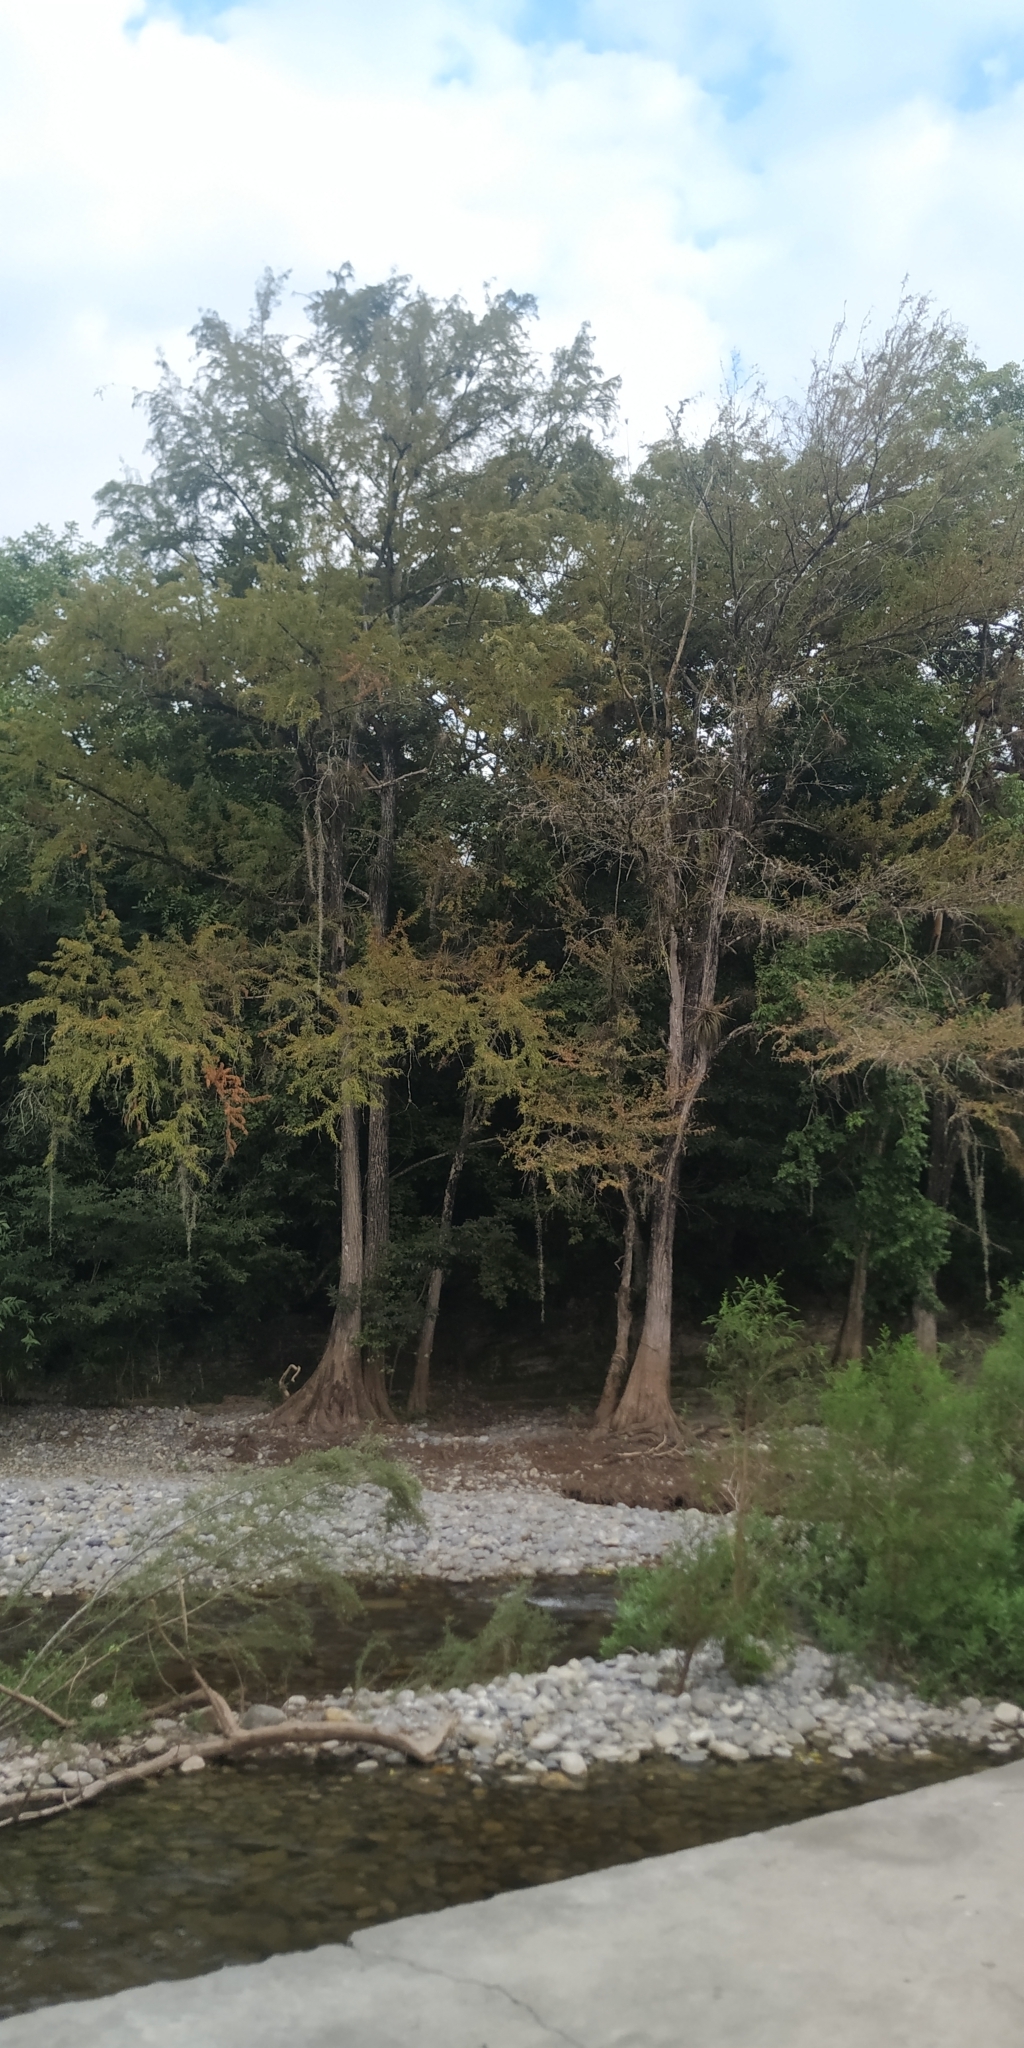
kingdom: Plantae
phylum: Tracheophyta
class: Pinopsida
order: Pinales
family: Cupressaceae
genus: Taxodium
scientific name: Taxodium mucronatum
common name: Montezume bald cypress
